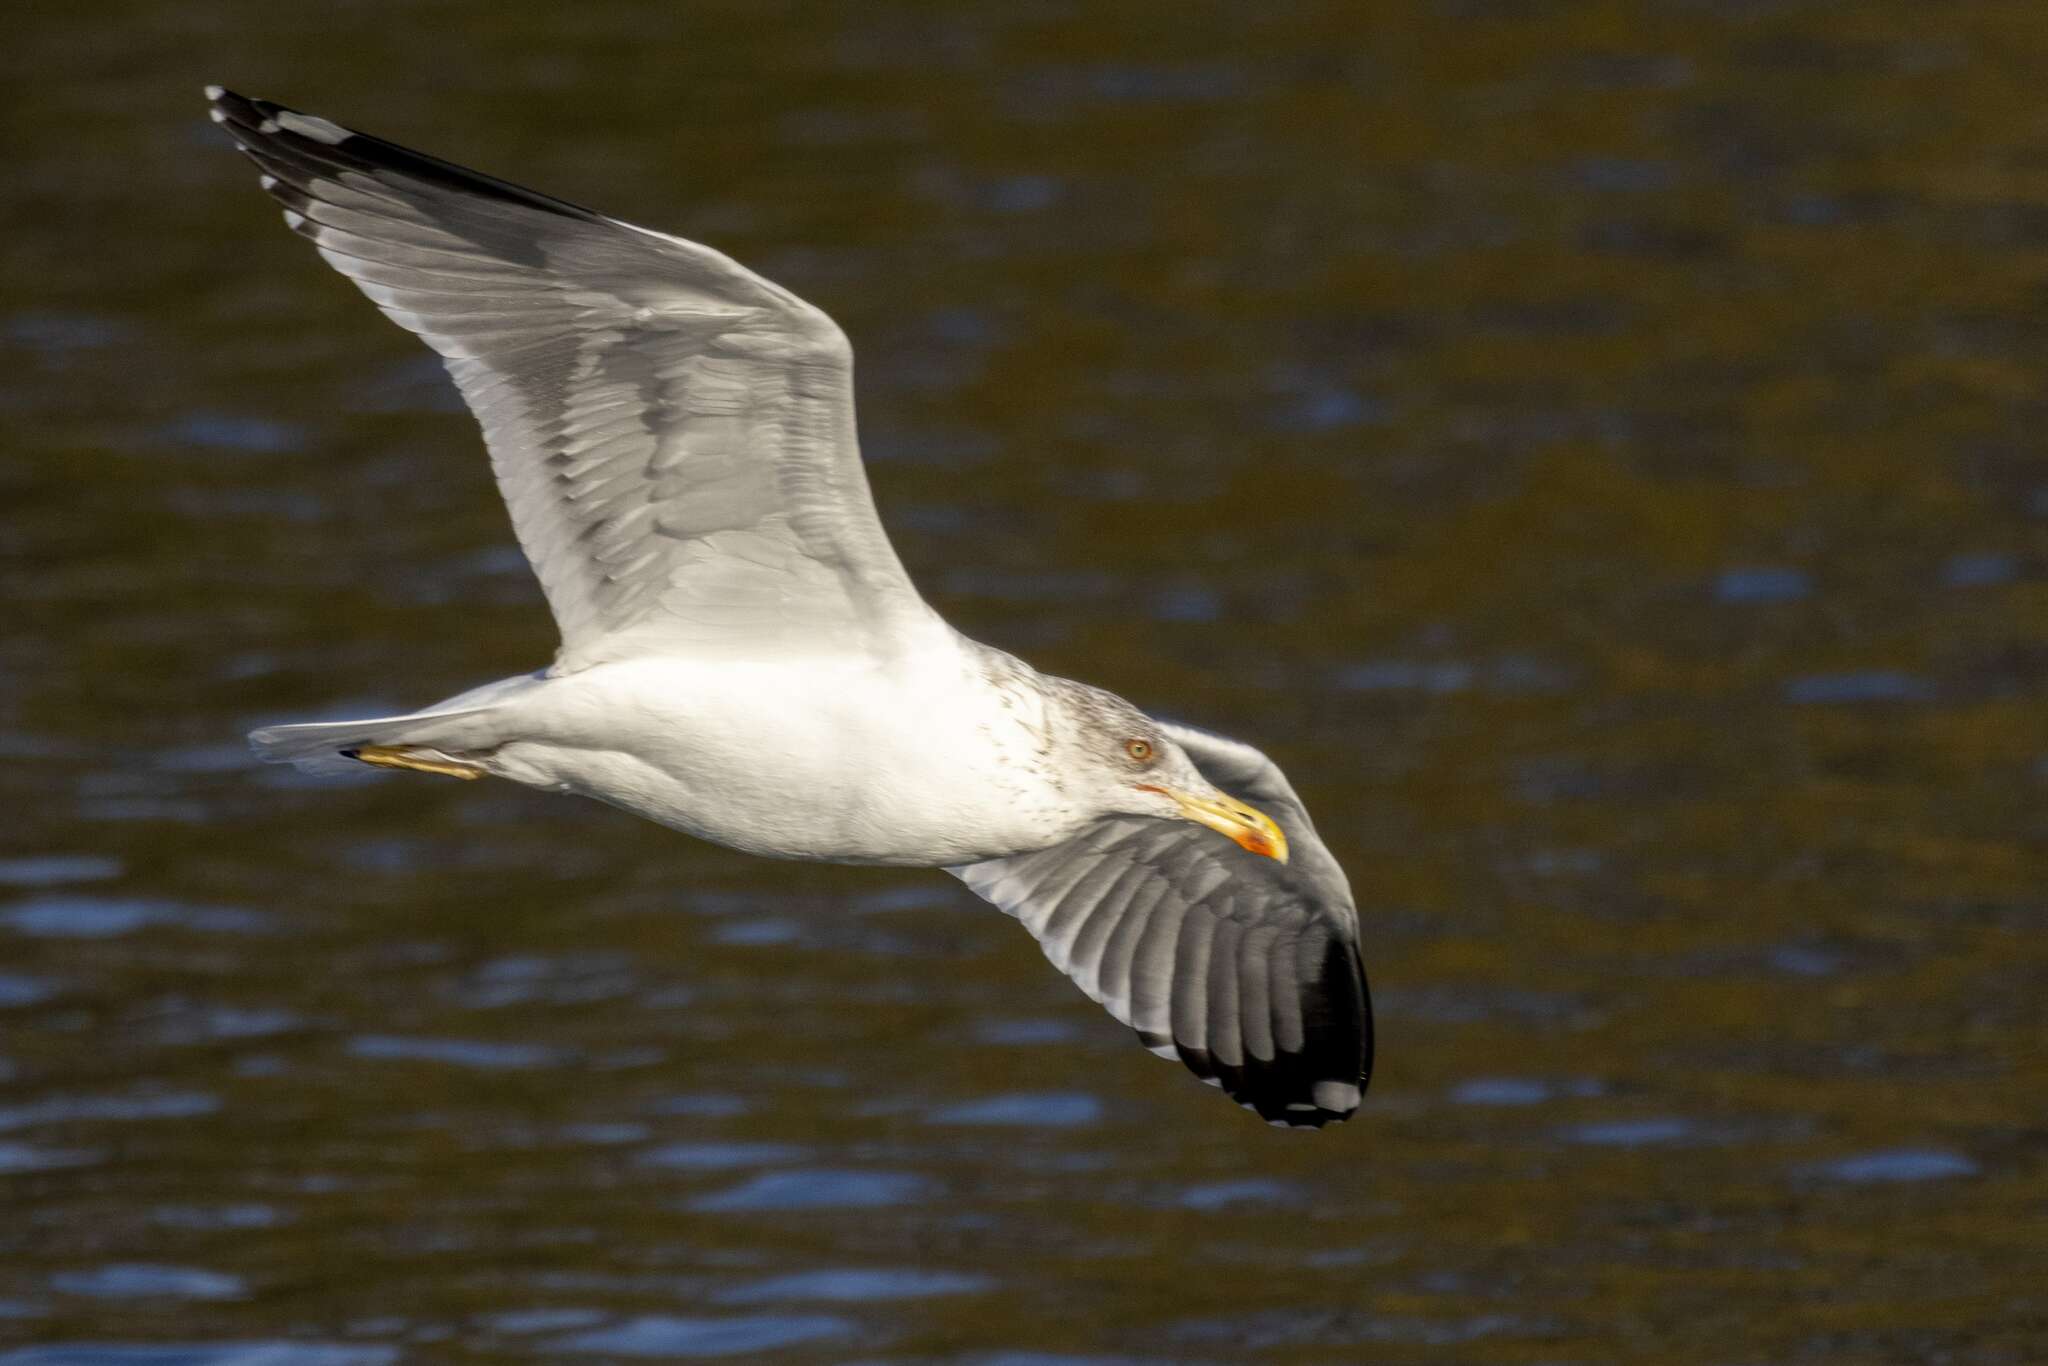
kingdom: Animalia
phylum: Chordata
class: Aves
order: Charadriiformes
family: Laridae
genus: Larus
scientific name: Larus fuscus
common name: Lesser black-backed gull
